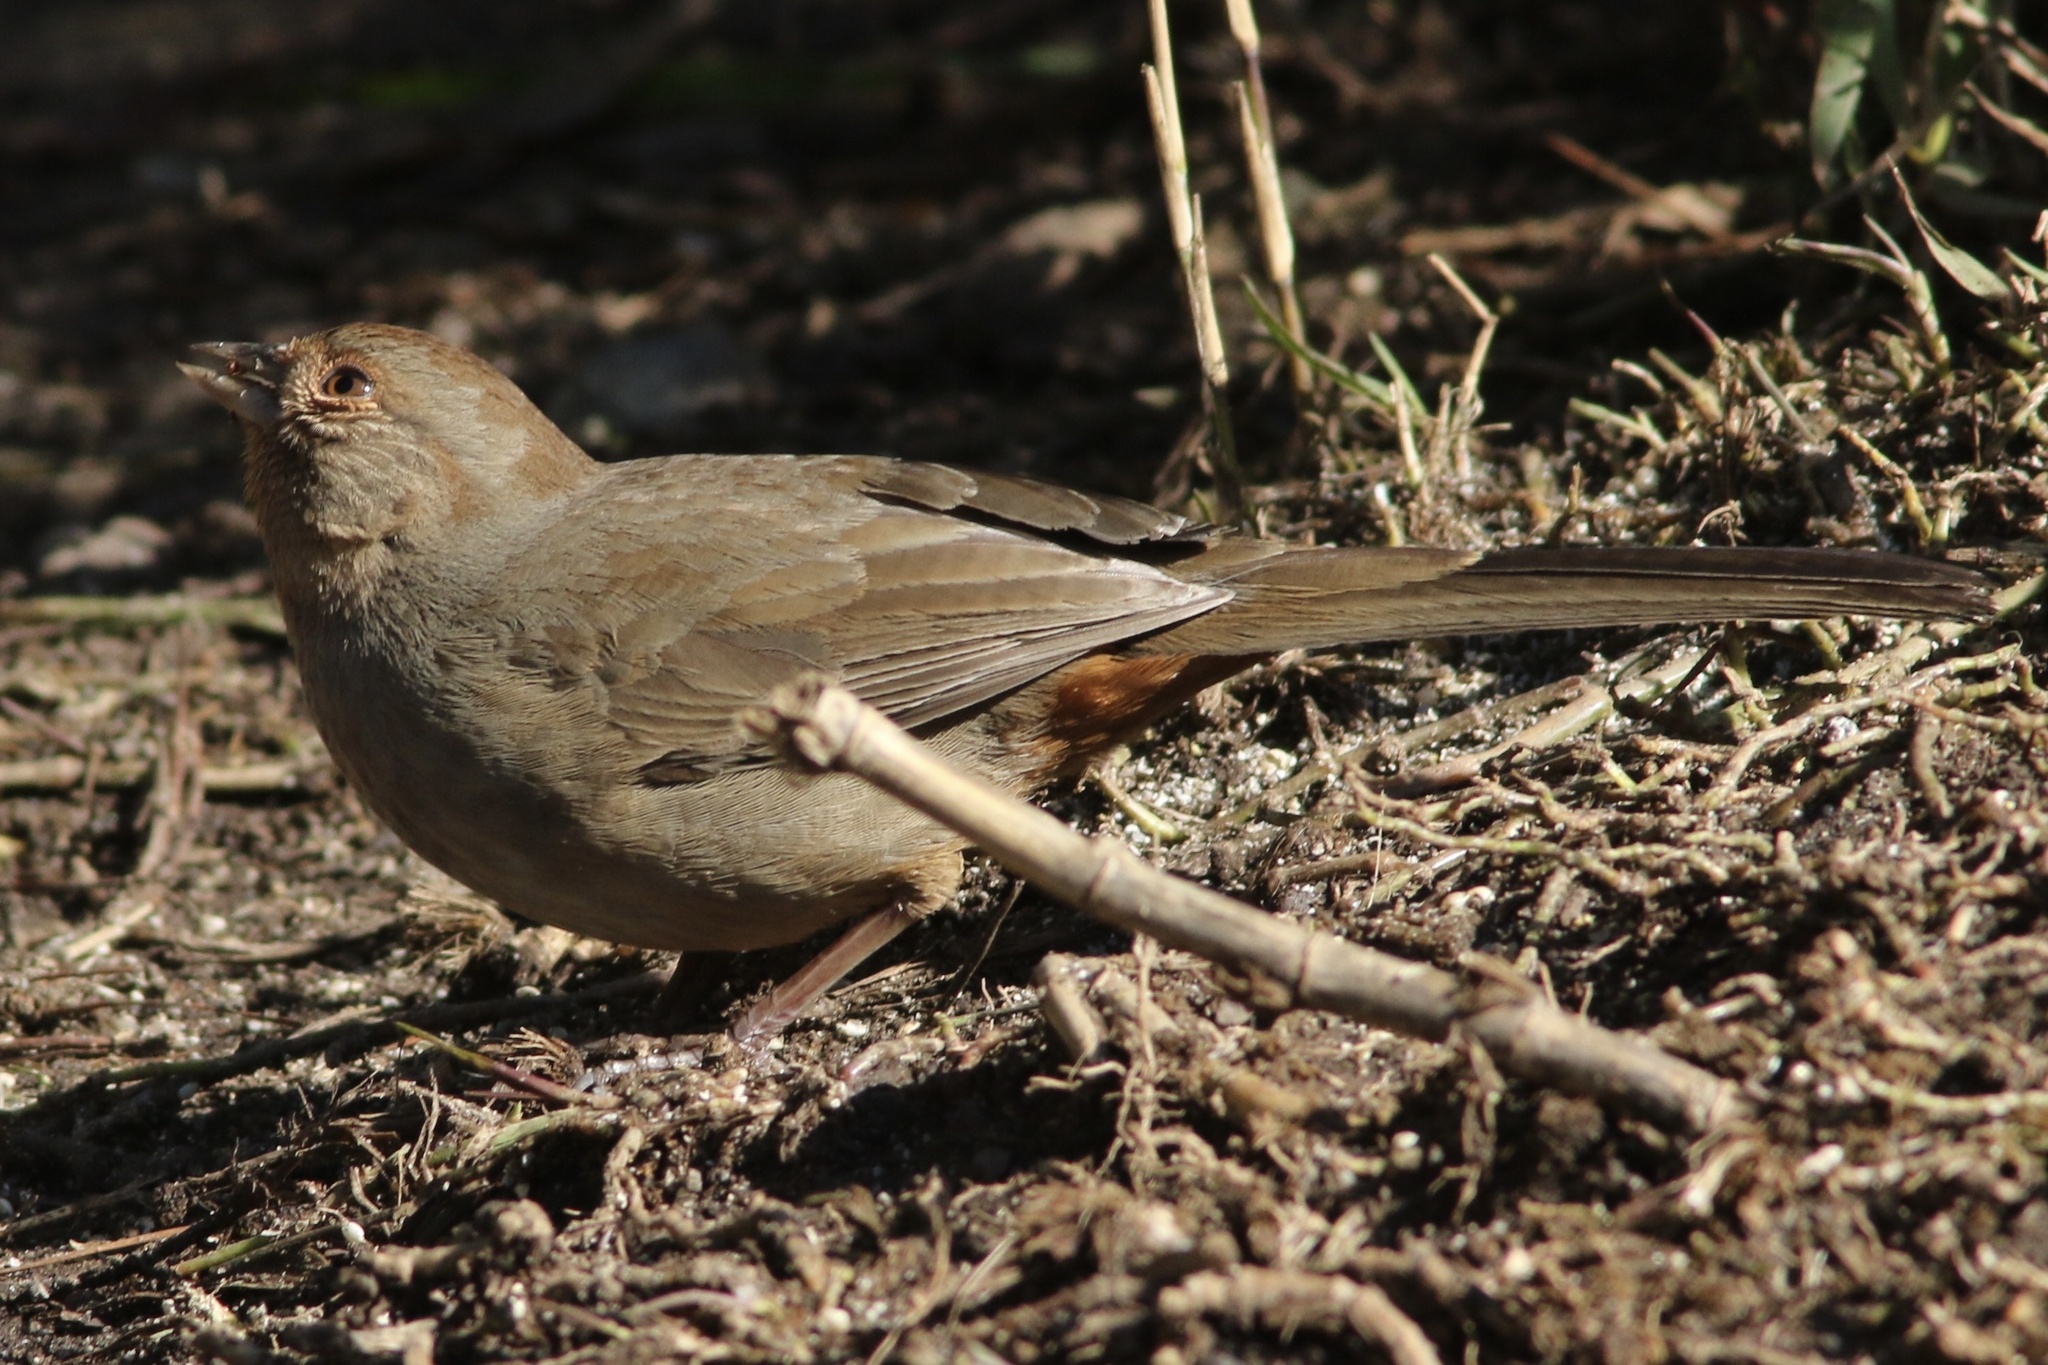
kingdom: Animalia
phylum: Chordata
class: Aves
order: Passeriformes
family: Passerellidae
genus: Melozone
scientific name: Melozone crissalis
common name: California towhee
